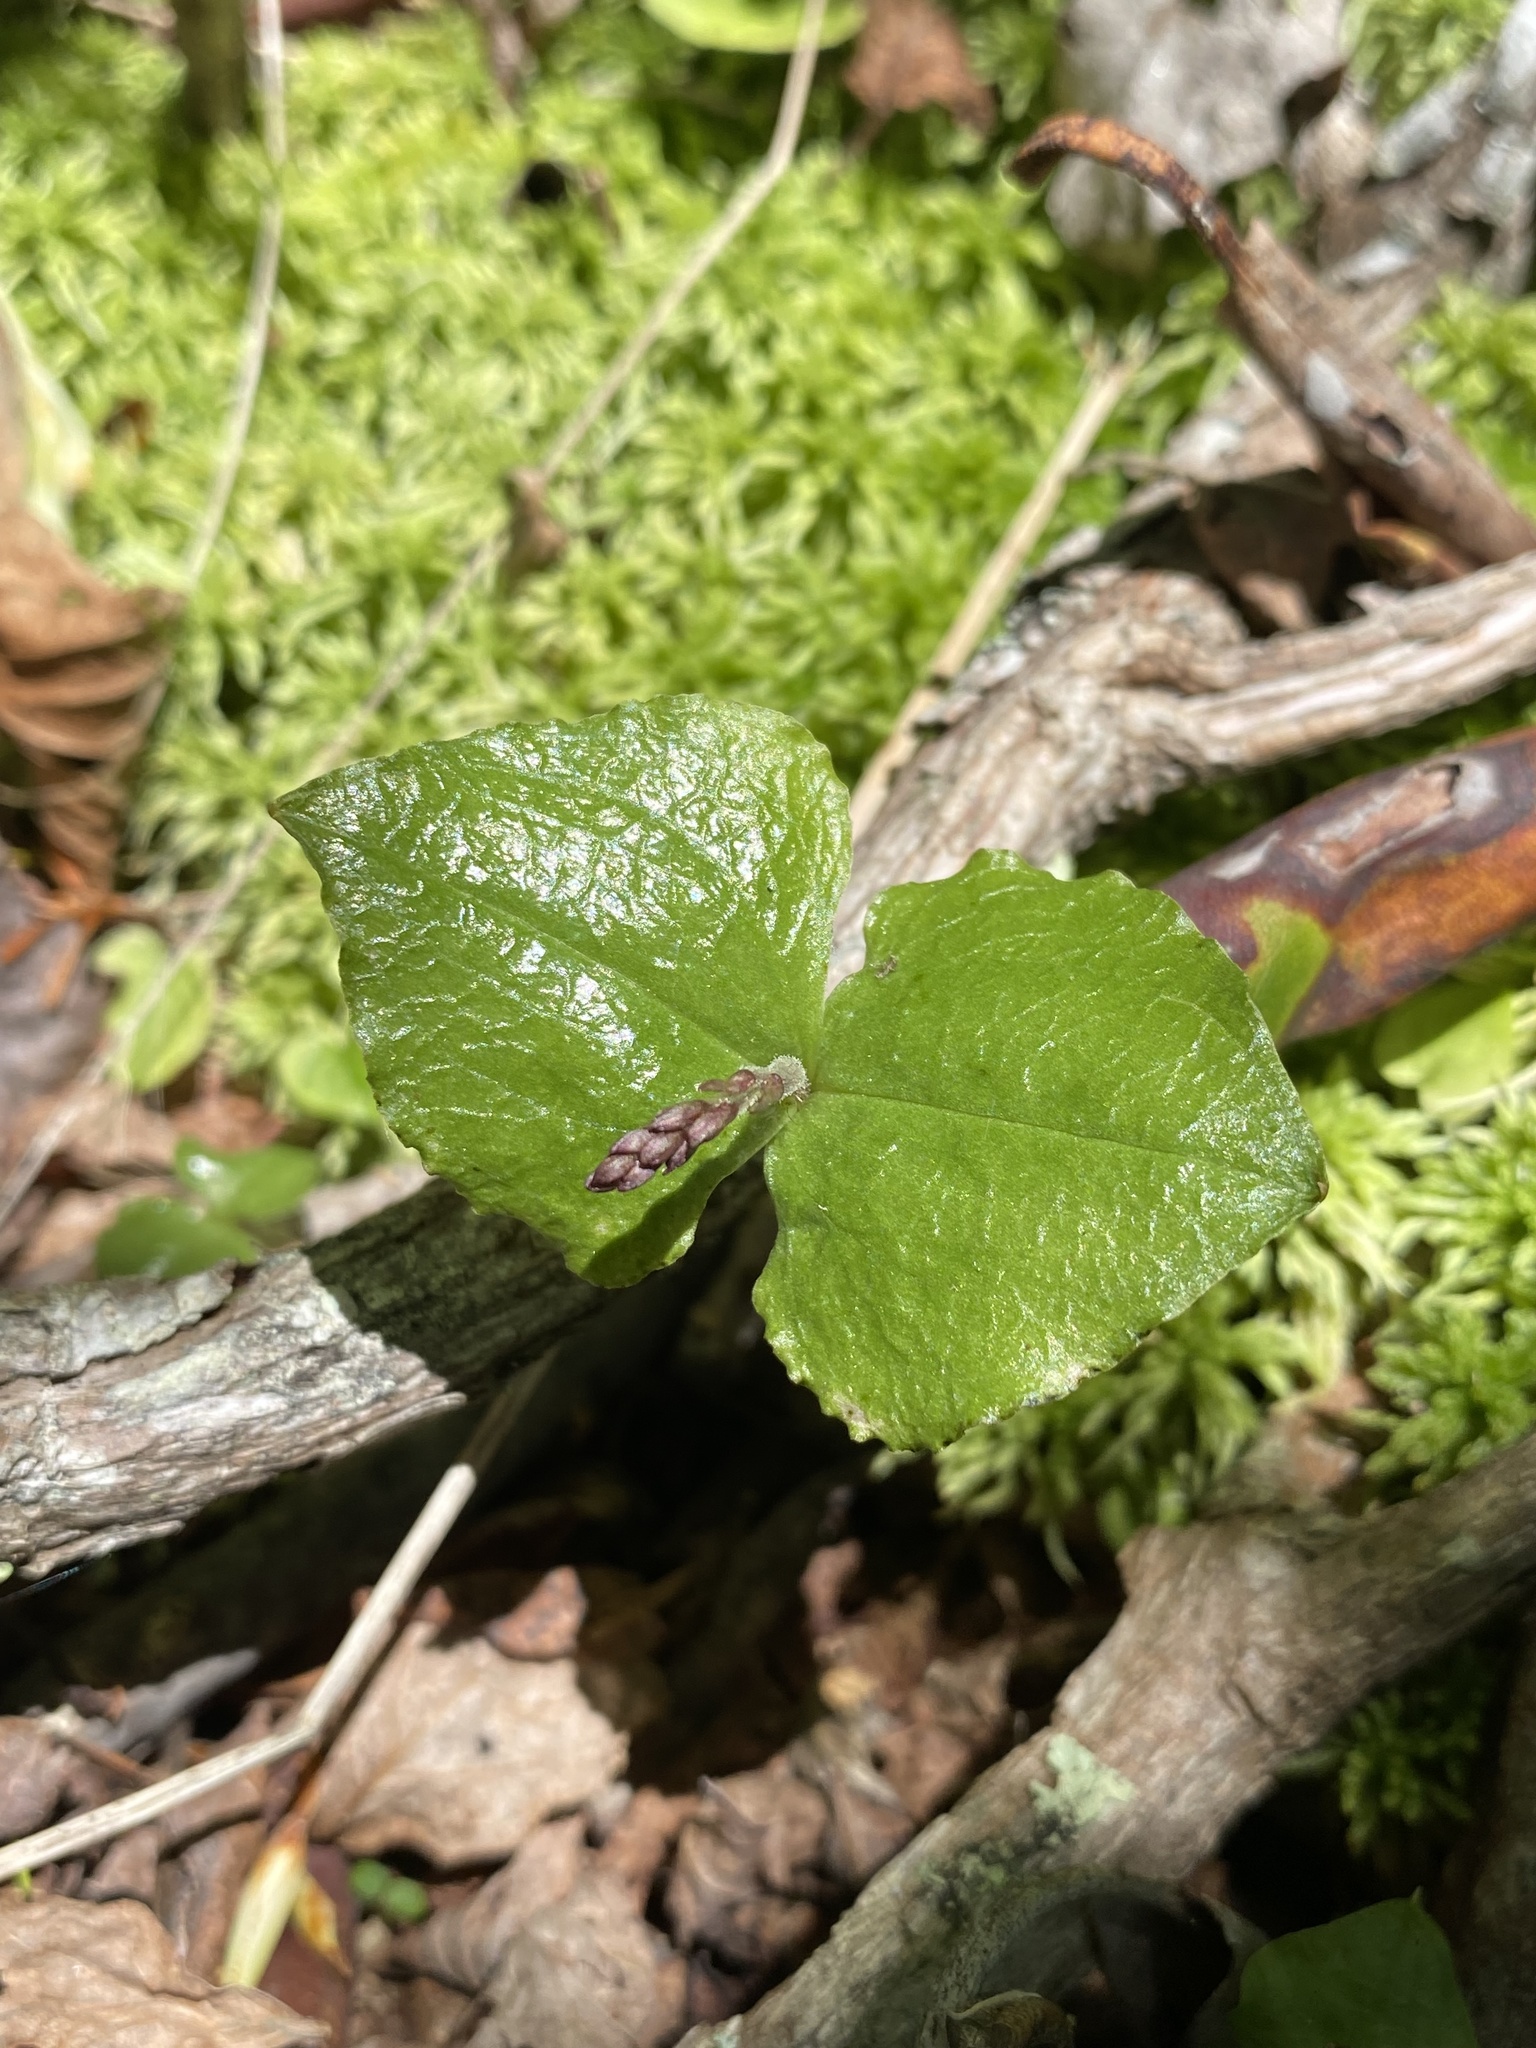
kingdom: Plantae
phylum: Tracheophyta
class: Liliopsida
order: Asparagales
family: Orchidaceae
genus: Neottia
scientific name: Neottia smallii
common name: Kidneyleaf twayblade
